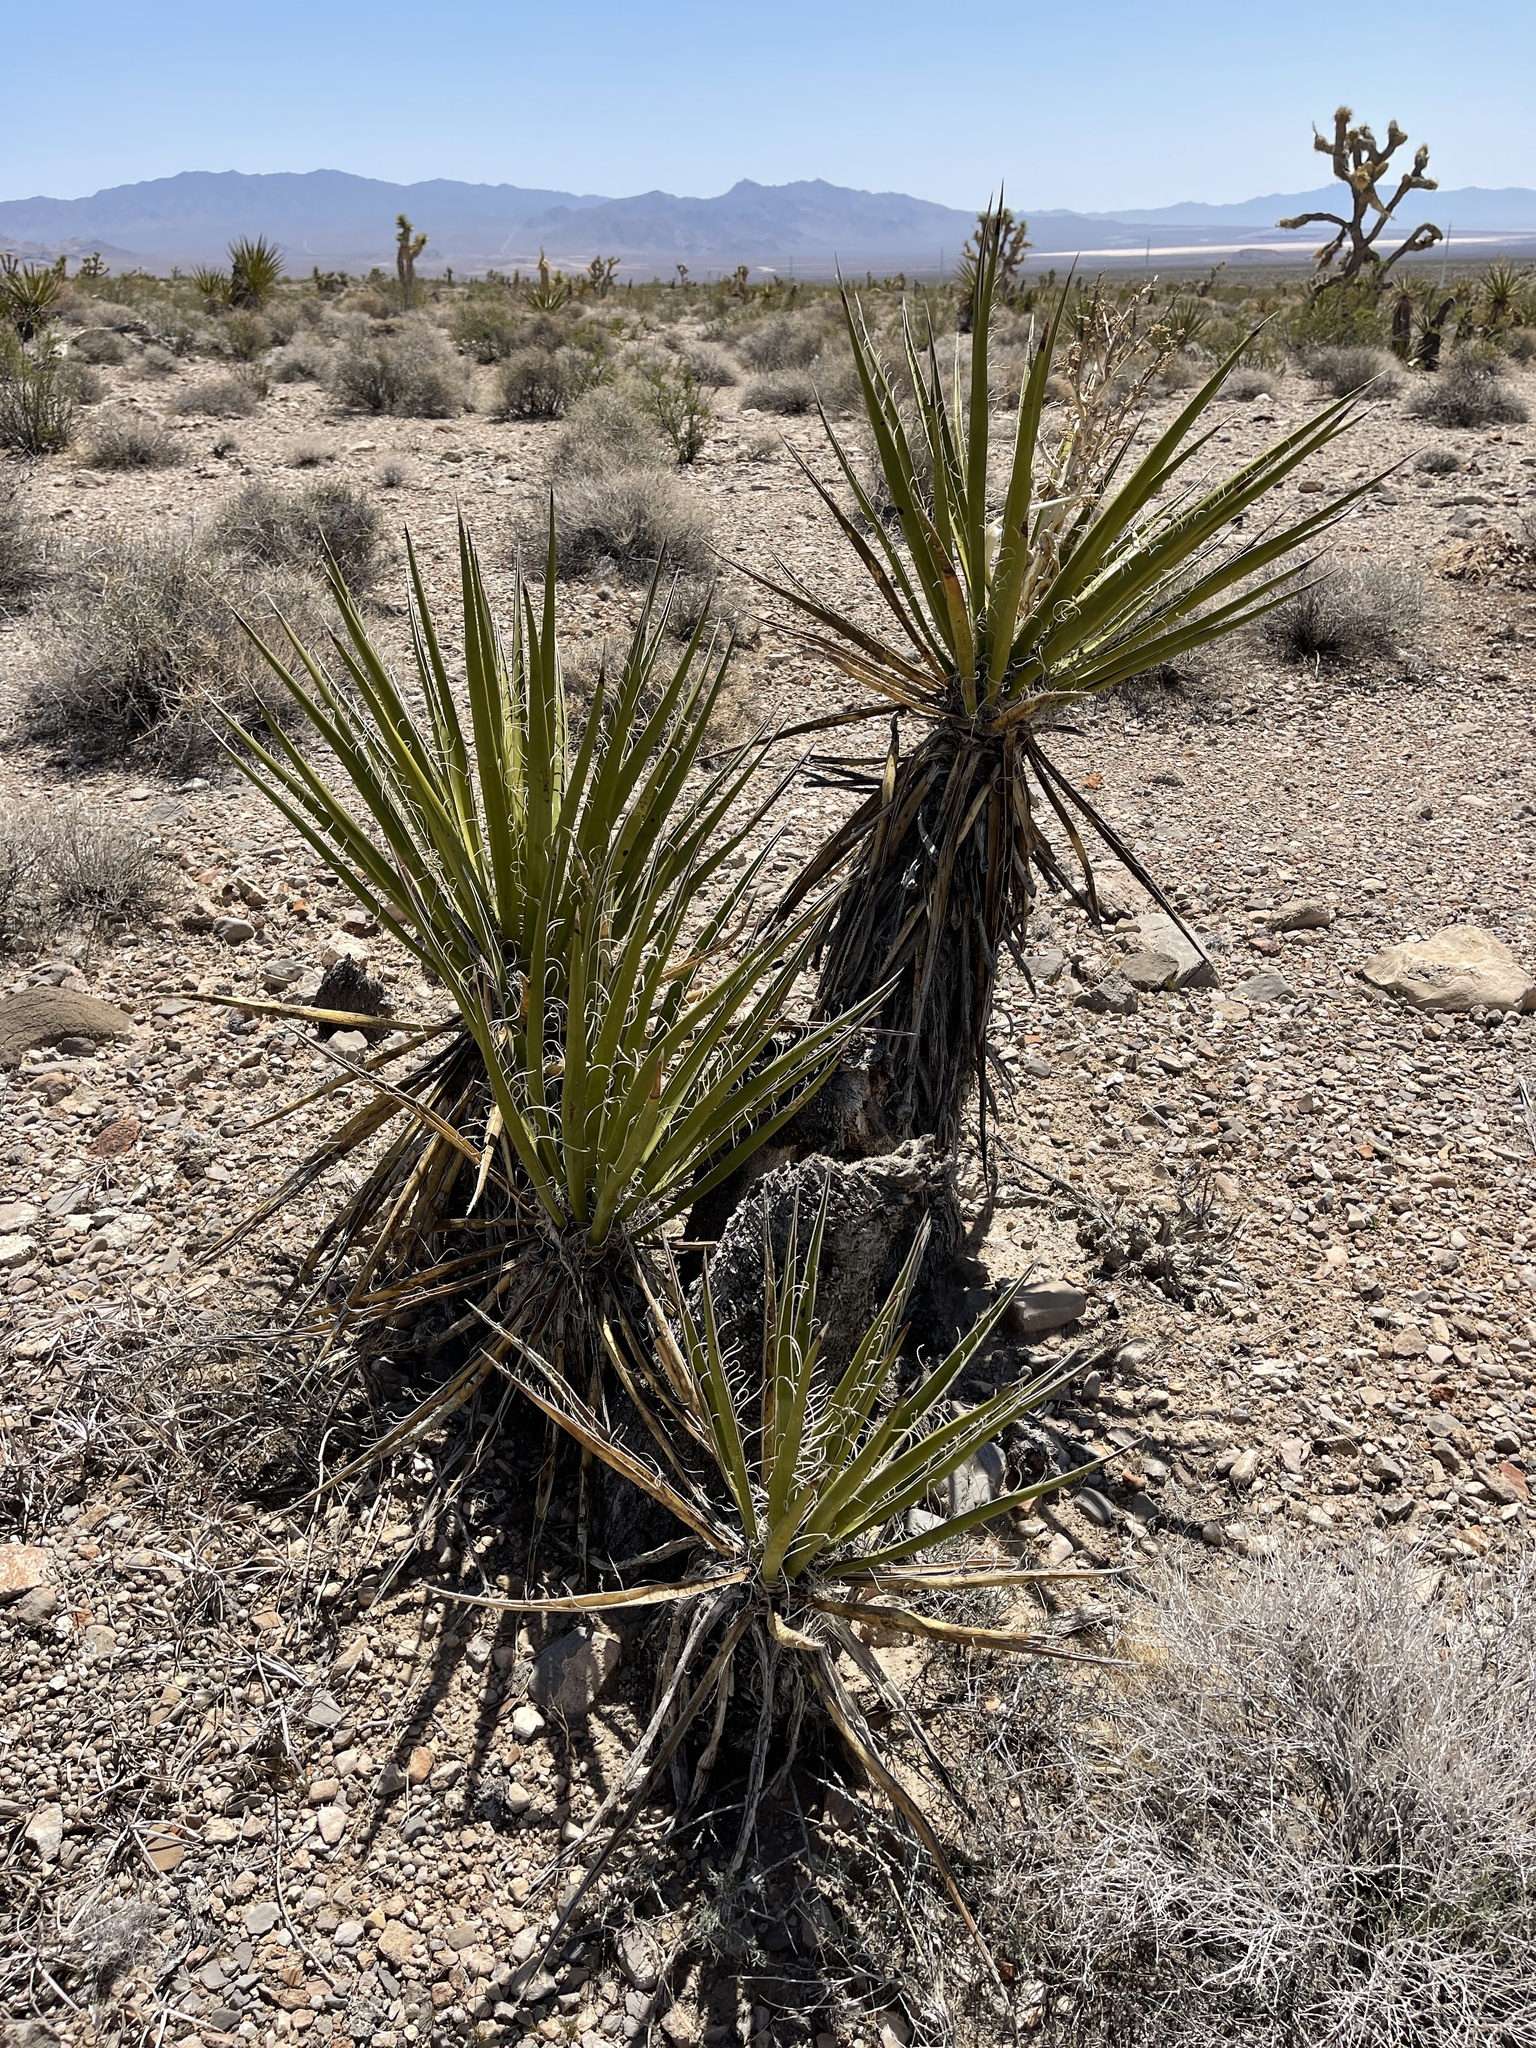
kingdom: Plantae
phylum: Tracheophyta
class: Liliopsida
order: Asparagales
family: Asparagaceae
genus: Yucca
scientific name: Yucca schidigera
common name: Mojave yucca
